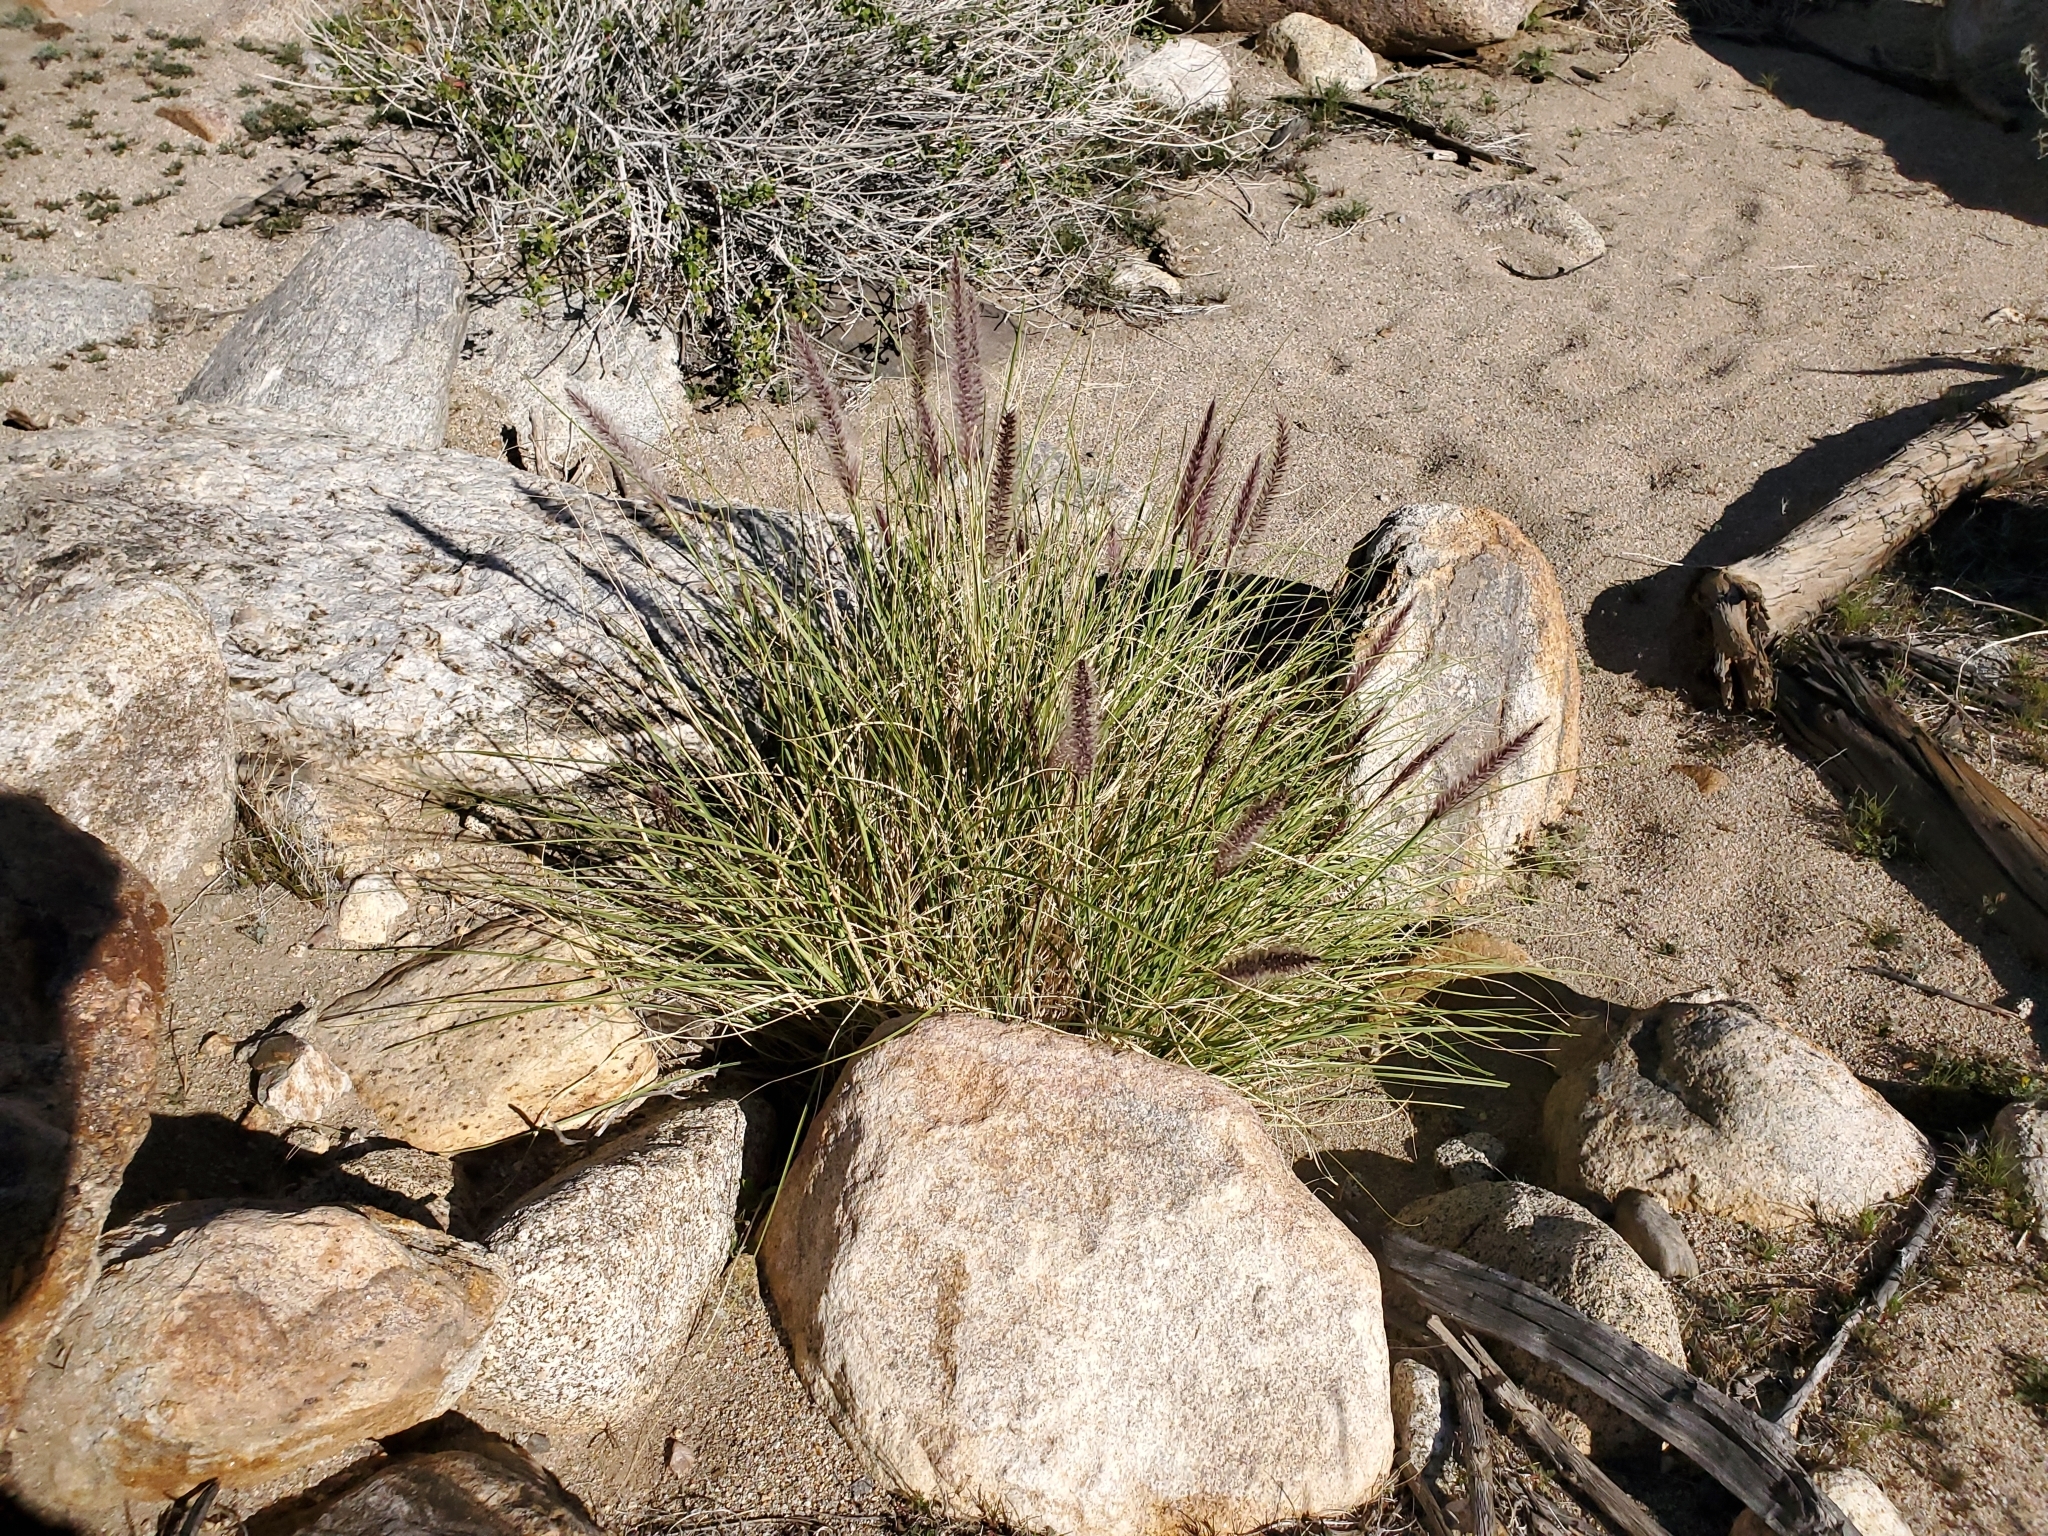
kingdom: Plantae
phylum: Tracheophyta
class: Liliopsida
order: Poales
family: Poaceae
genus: Cenchrus
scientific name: Cenchrus setaceus
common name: Crimson fountaingrass
